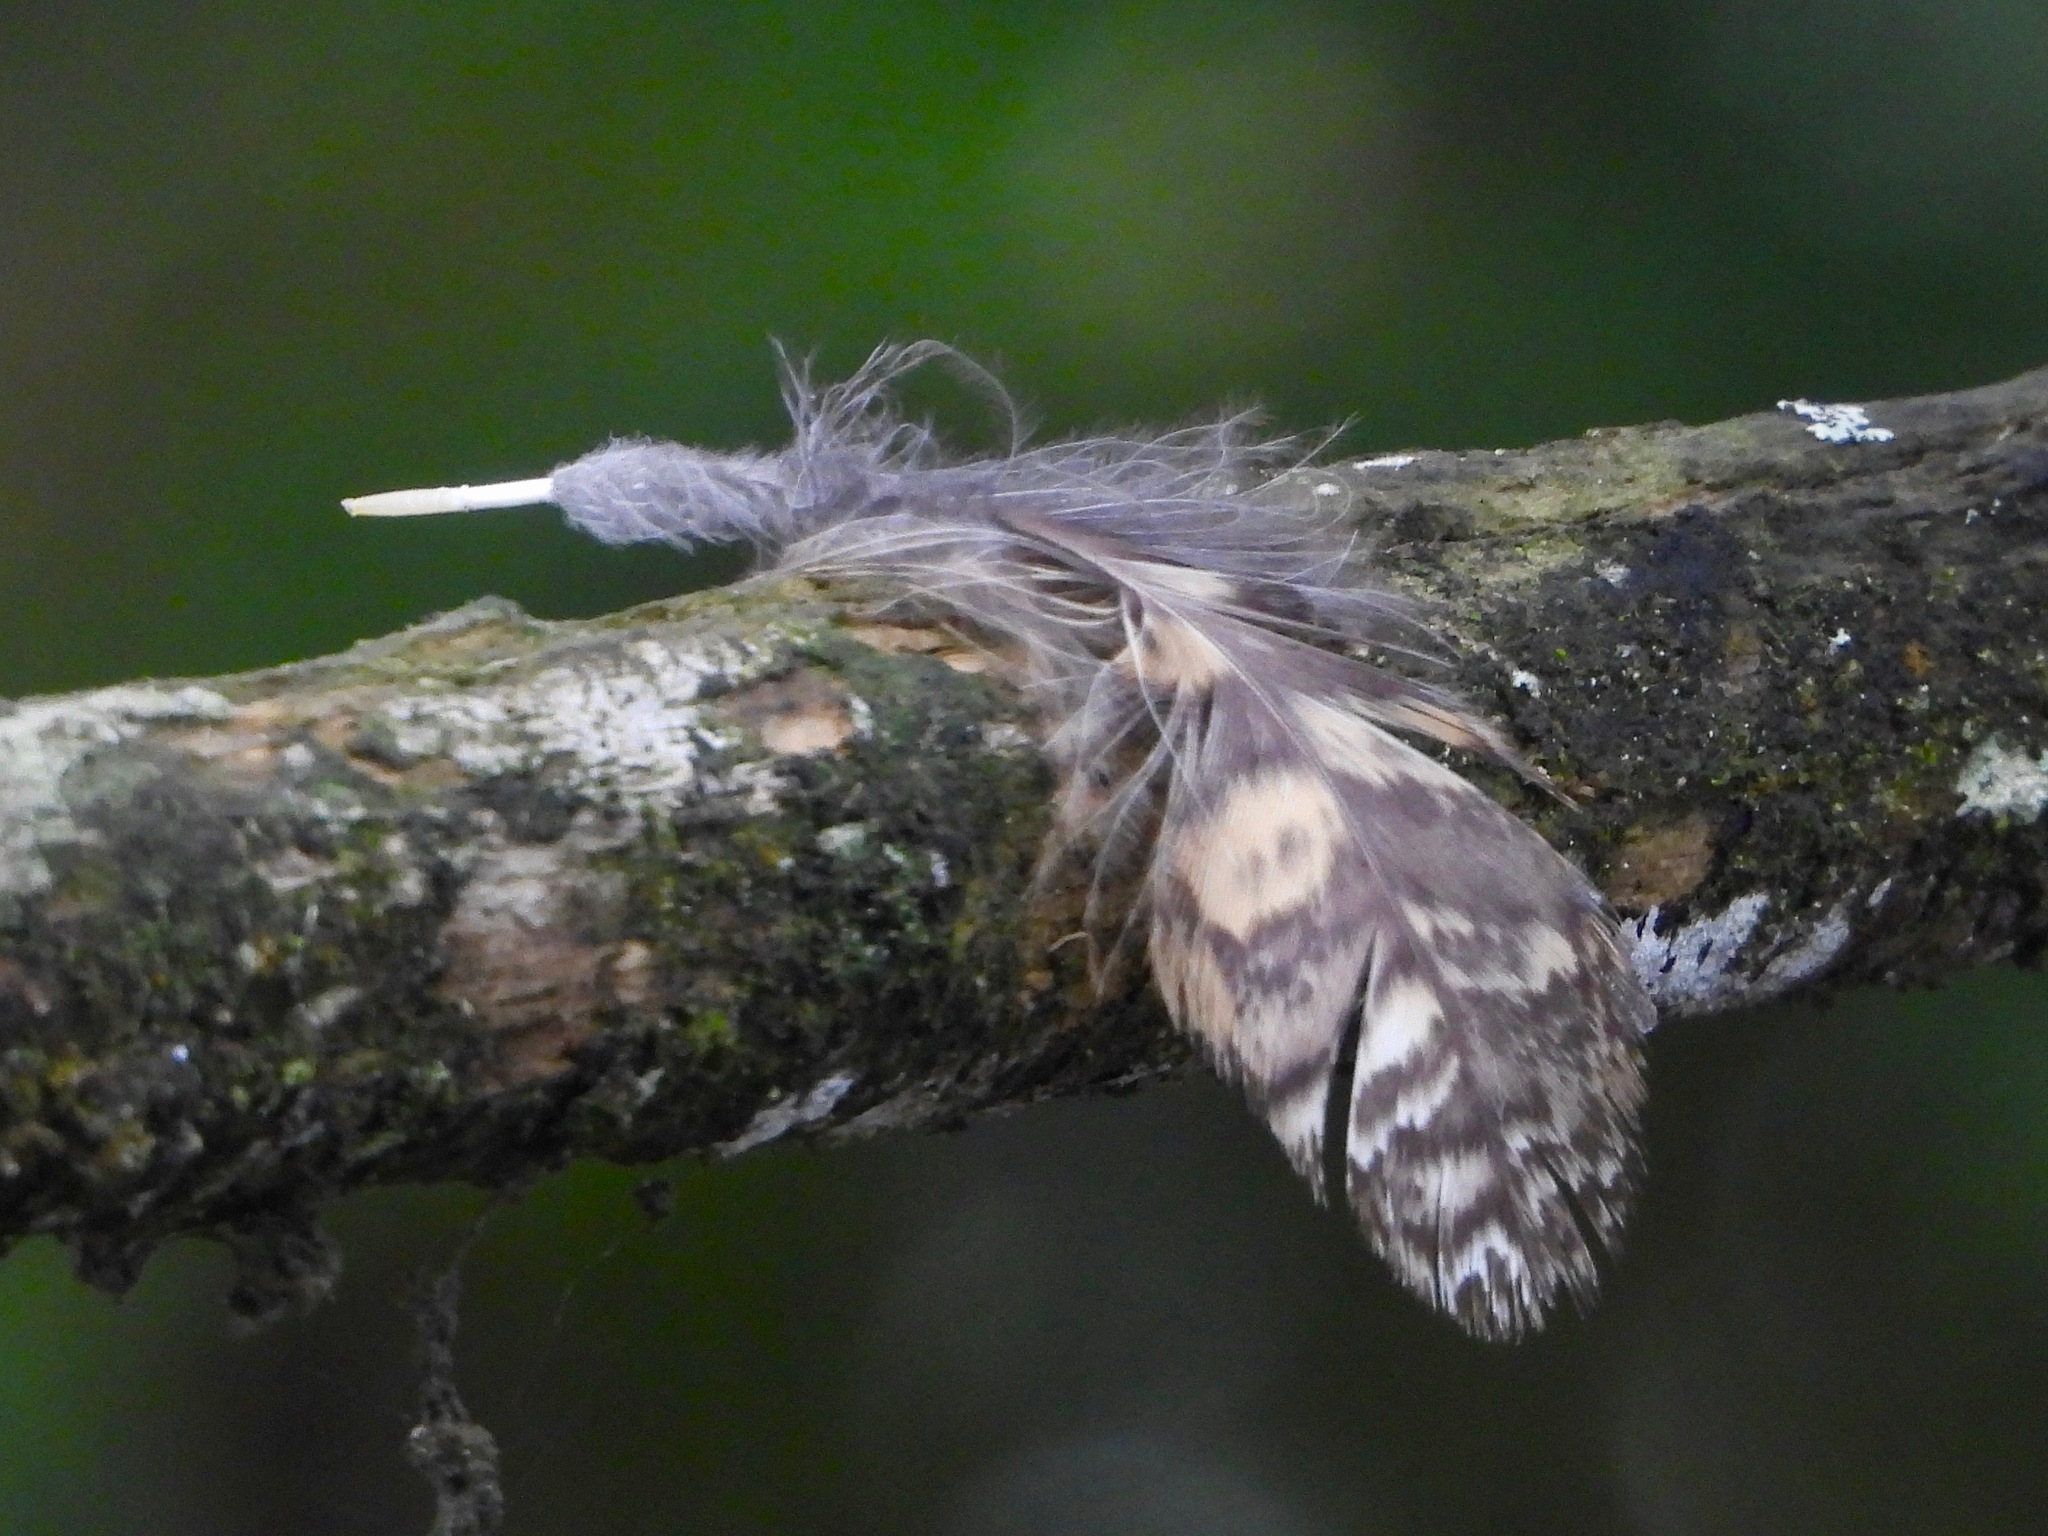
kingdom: Animalia
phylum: Chordata
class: Aves
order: Strigiformes
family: Strigidae
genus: Bubo
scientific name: Bubo virginianus
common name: Great horned owl
